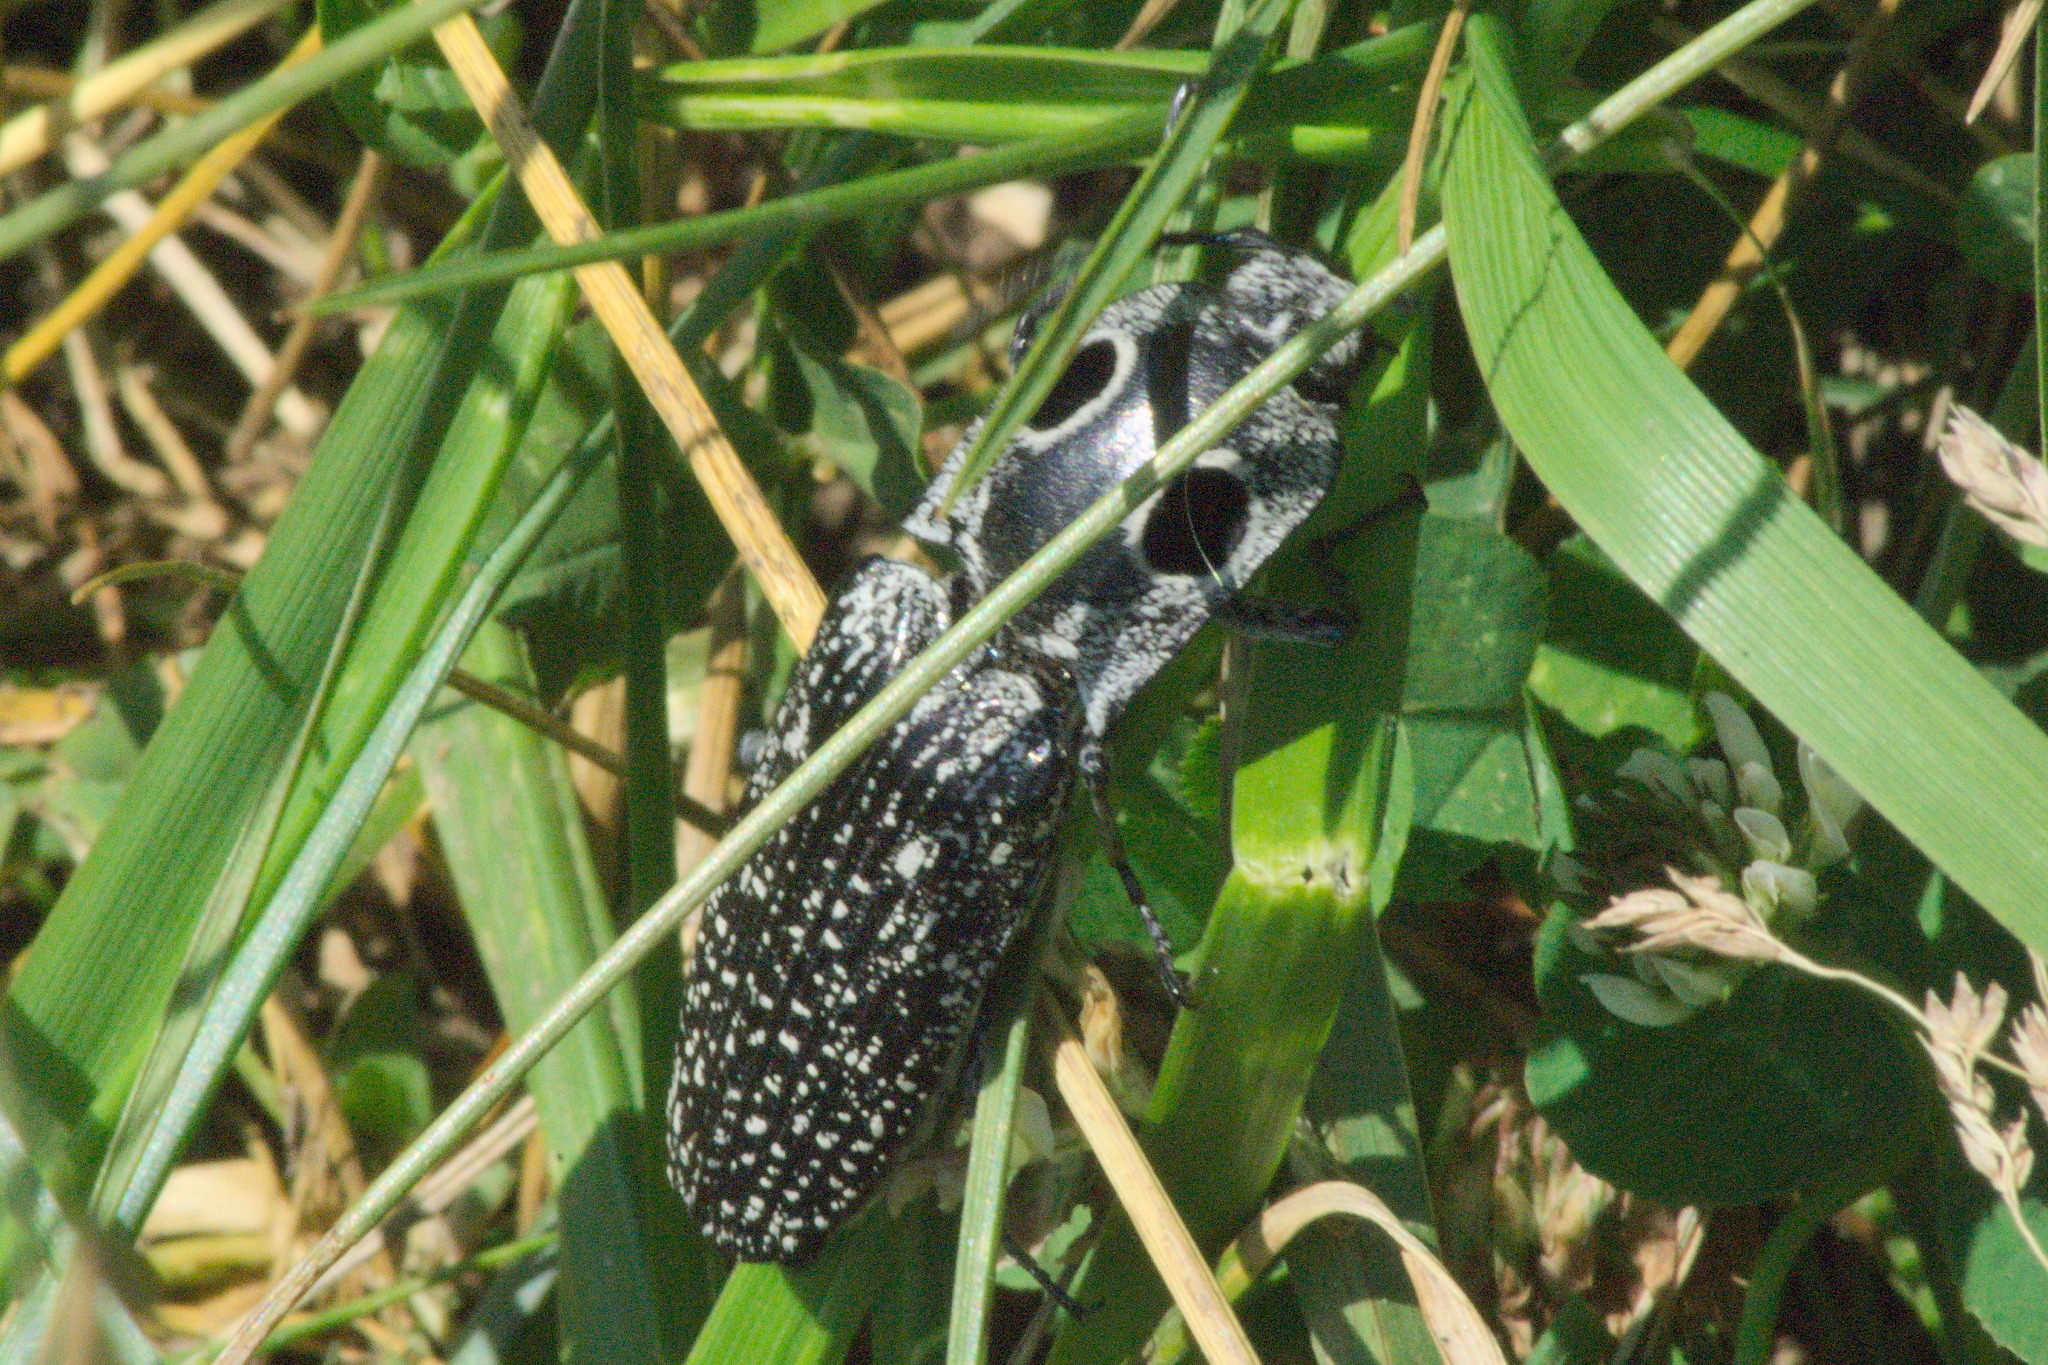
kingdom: Animalia
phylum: Arthropoda
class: Insecta
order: Coleoptera
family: Elateridae
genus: Alaus
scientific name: Alaus oculatus
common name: Eastern eyed click beetle
